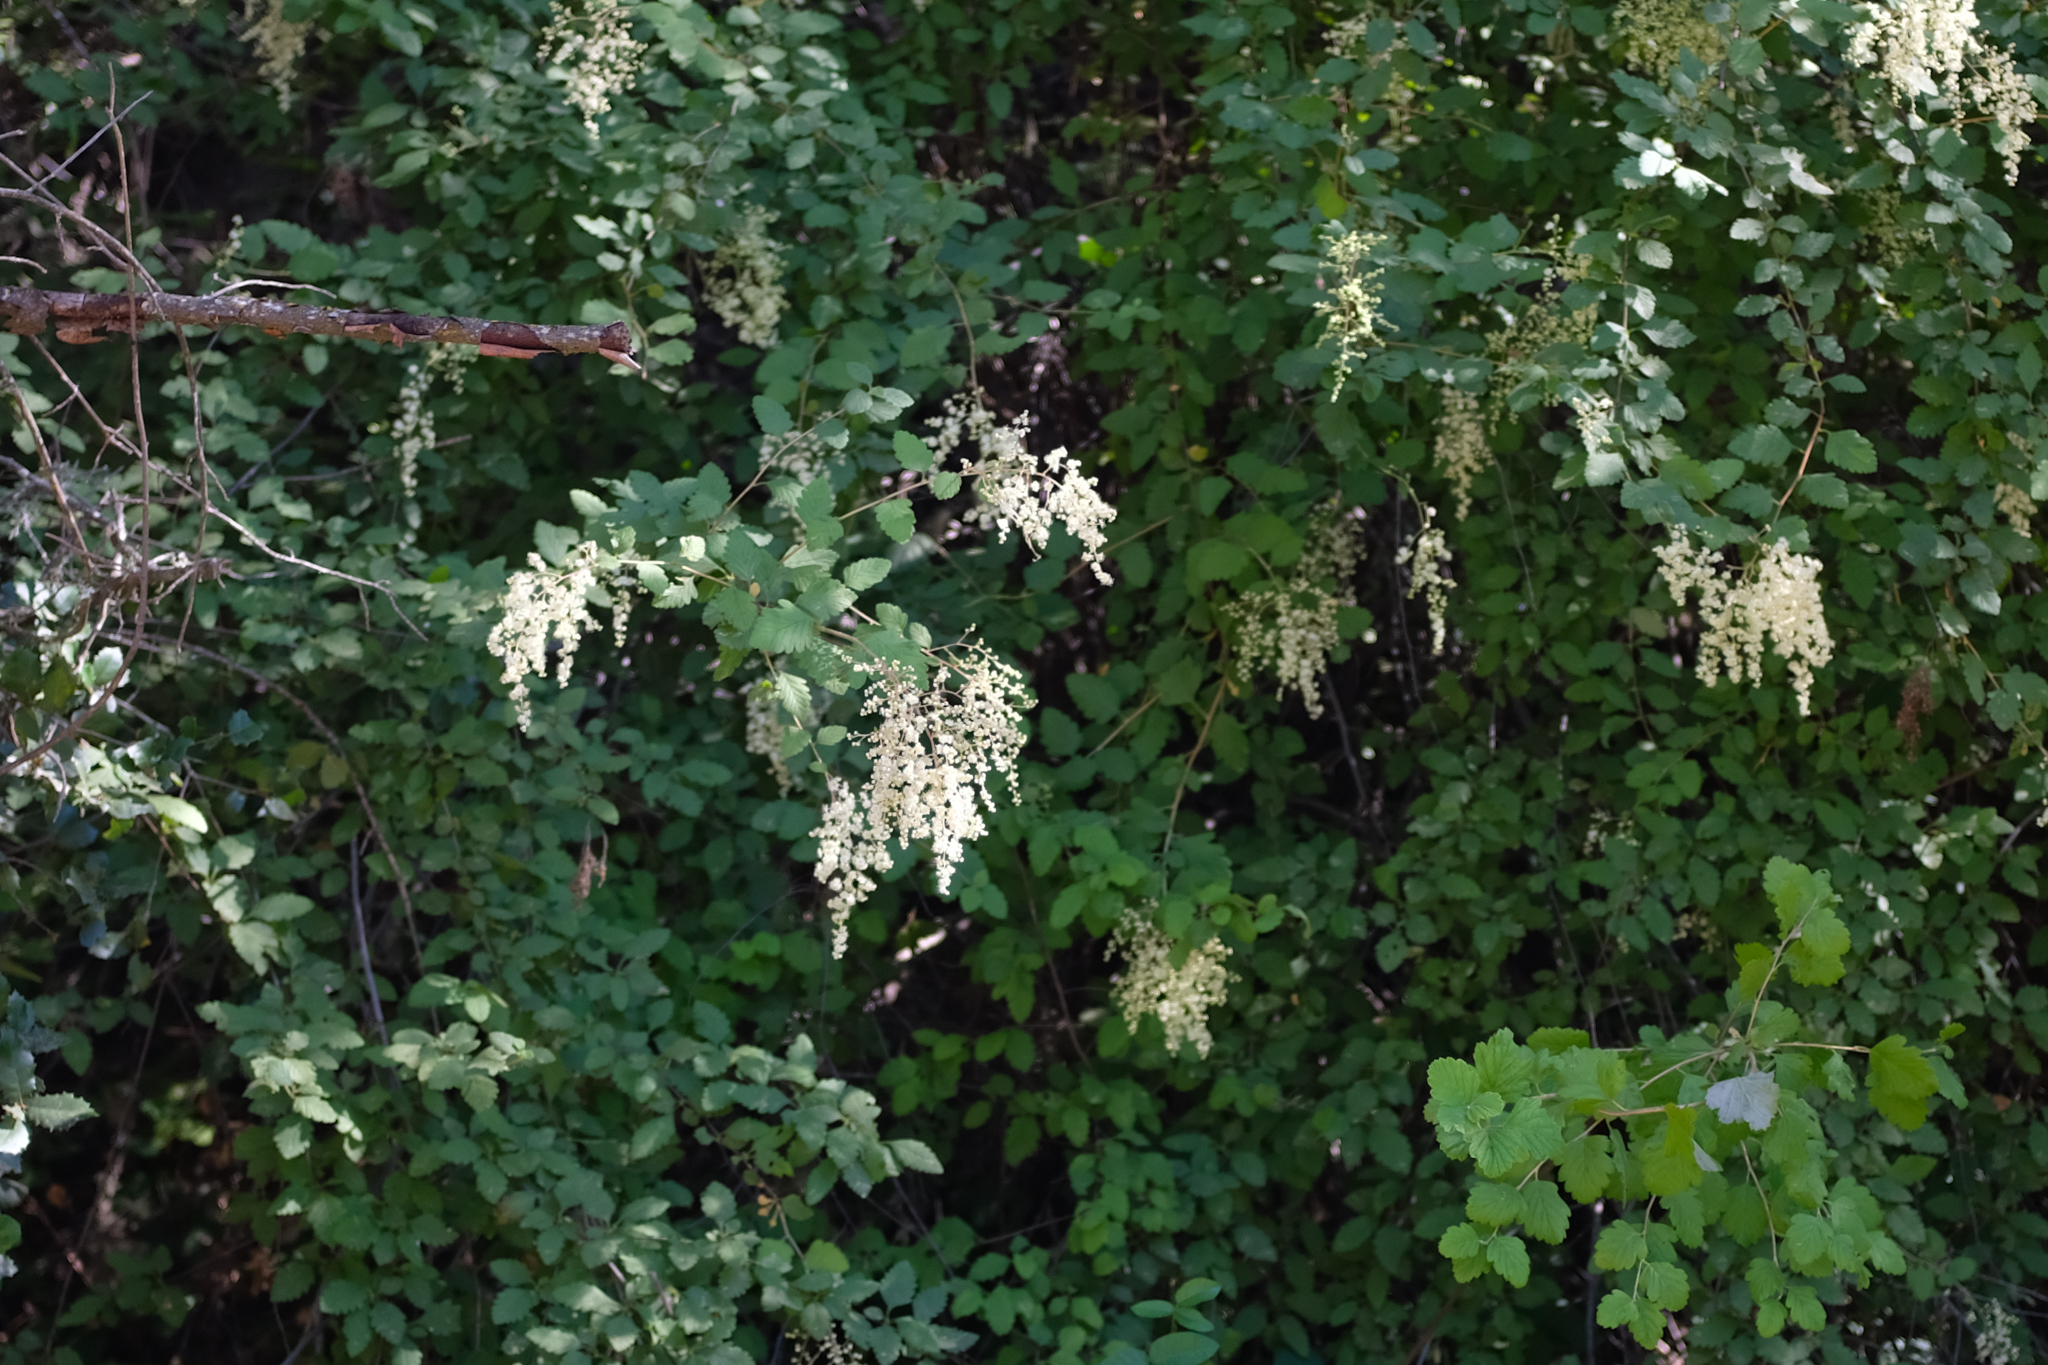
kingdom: Plantae
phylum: Tracheophyta
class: Magnoliopsida
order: Rosales
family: Rosaceae
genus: Holodiscus
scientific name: Holodiscus discolor
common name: Oceanspray
